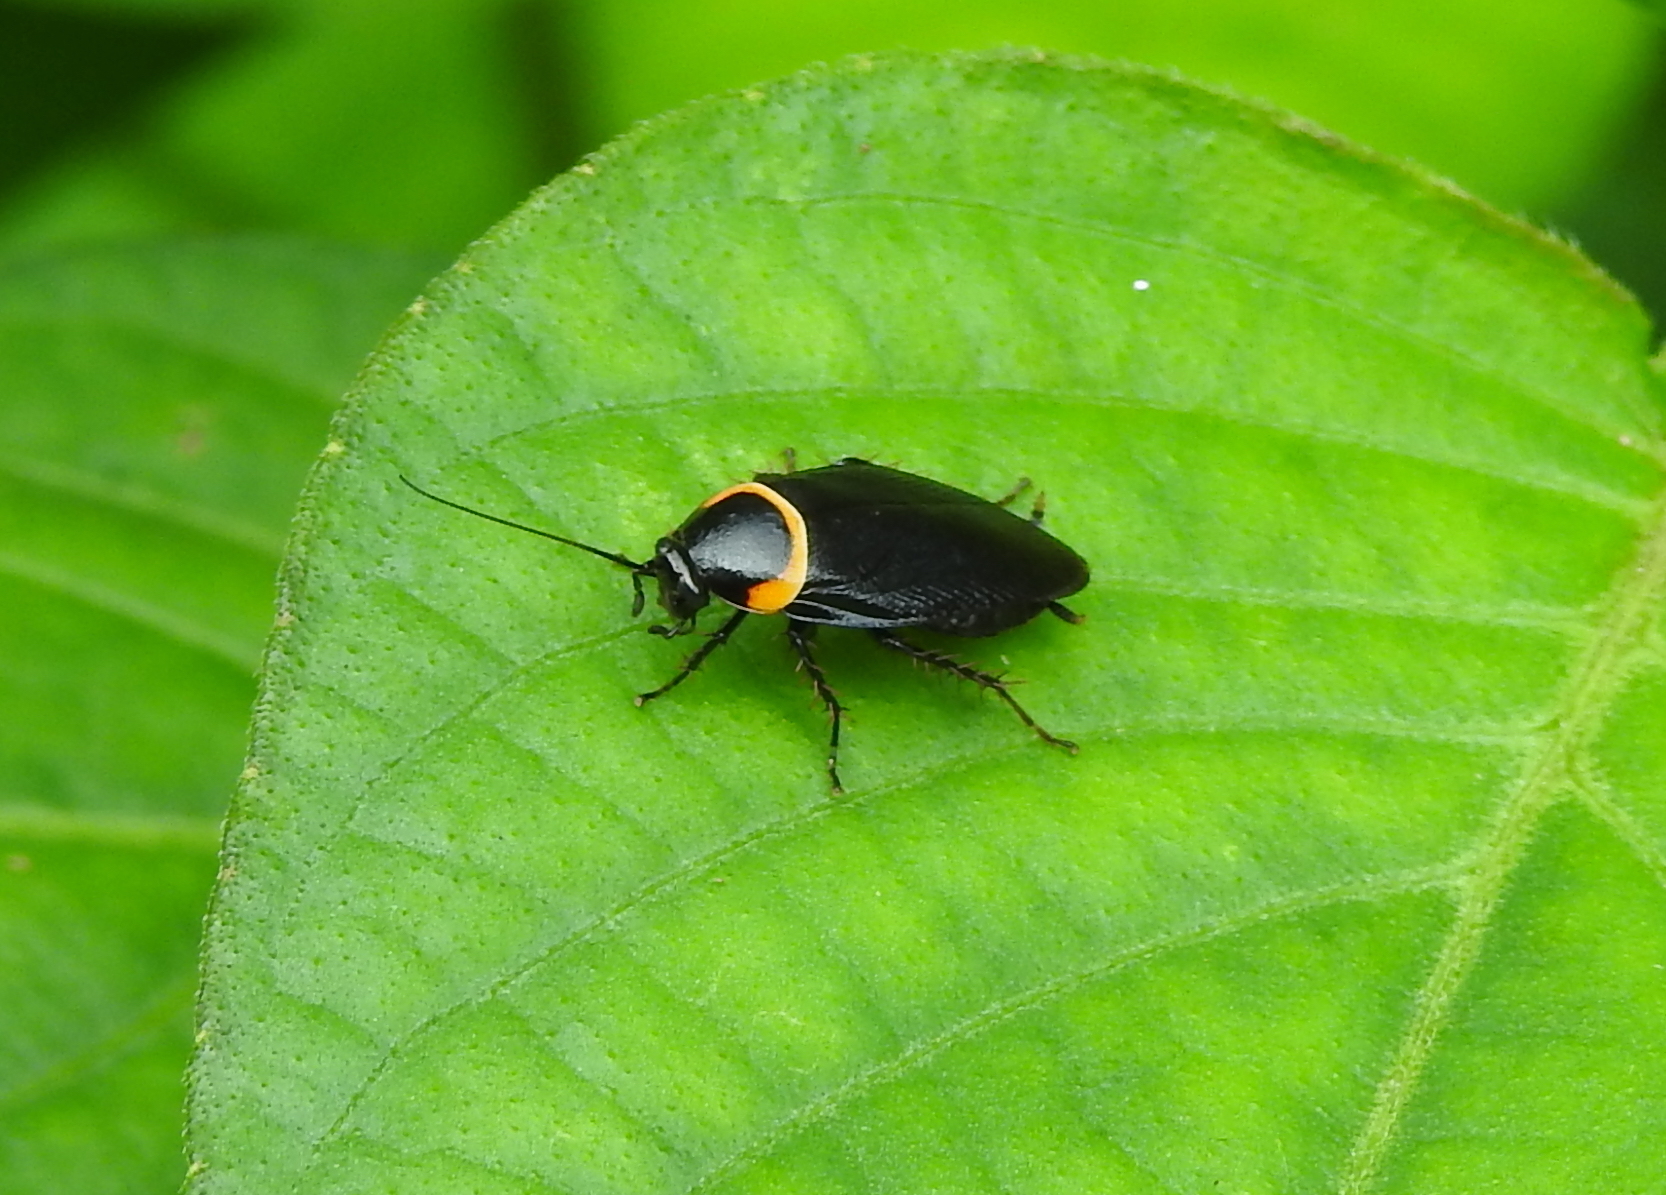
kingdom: Animalia
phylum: Arthropoda
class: Insecta
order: Blattodea
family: Ectobiidae
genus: Hemithyrsocera
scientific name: Hemithyrsocera palliata
